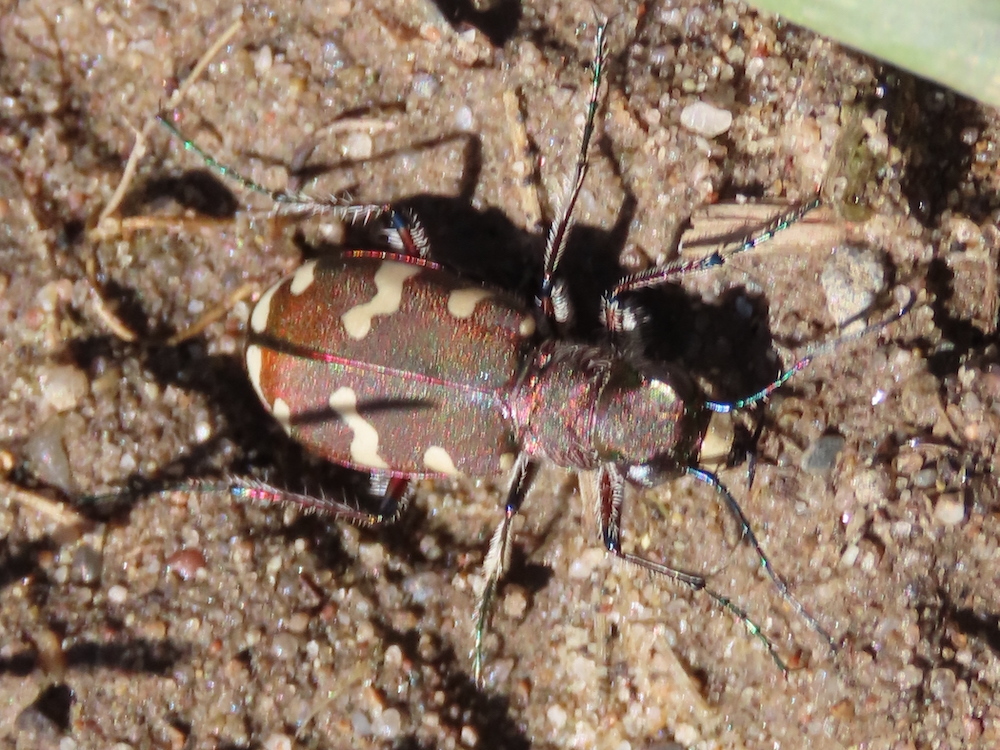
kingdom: Animalia
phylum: Arthropoda
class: Insecta
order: Coleoptera
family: Carabidae
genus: Cicindela
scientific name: Cicindela hybrida
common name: Northern dune tiger beetle
